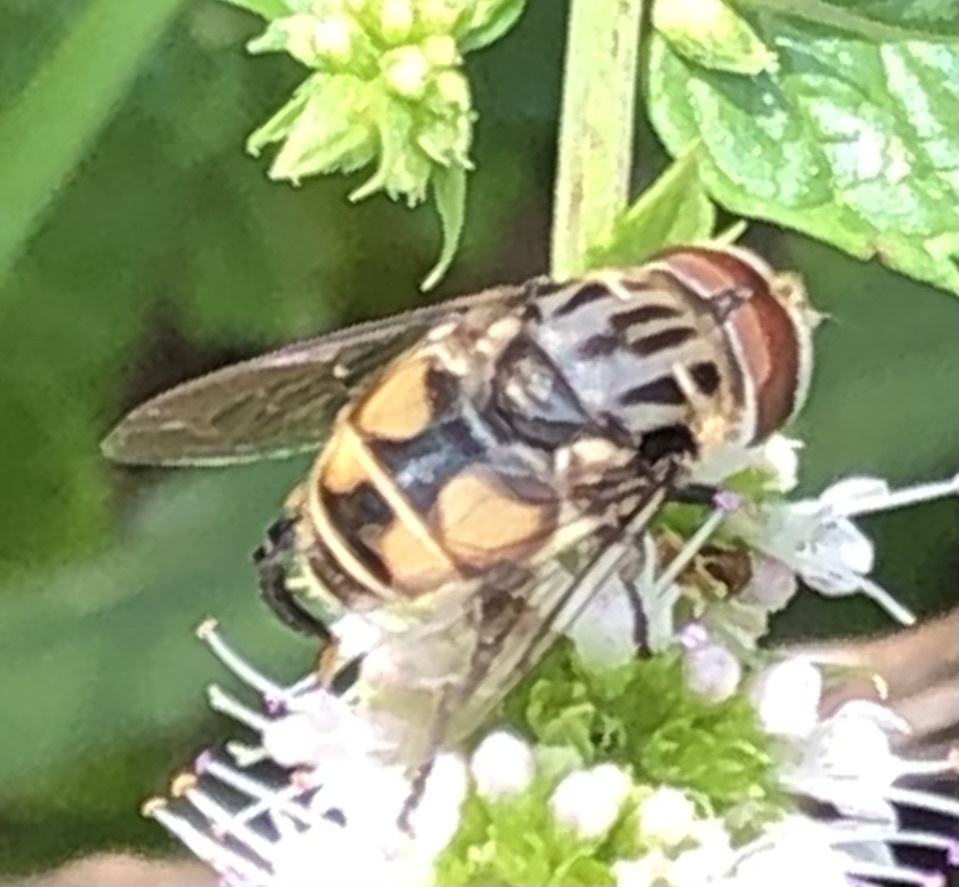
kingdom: Animalia
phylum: Arthropoda
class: Insecta
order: Diptera
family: Syrphidae
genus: Palpada
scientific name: Palpada furcata
